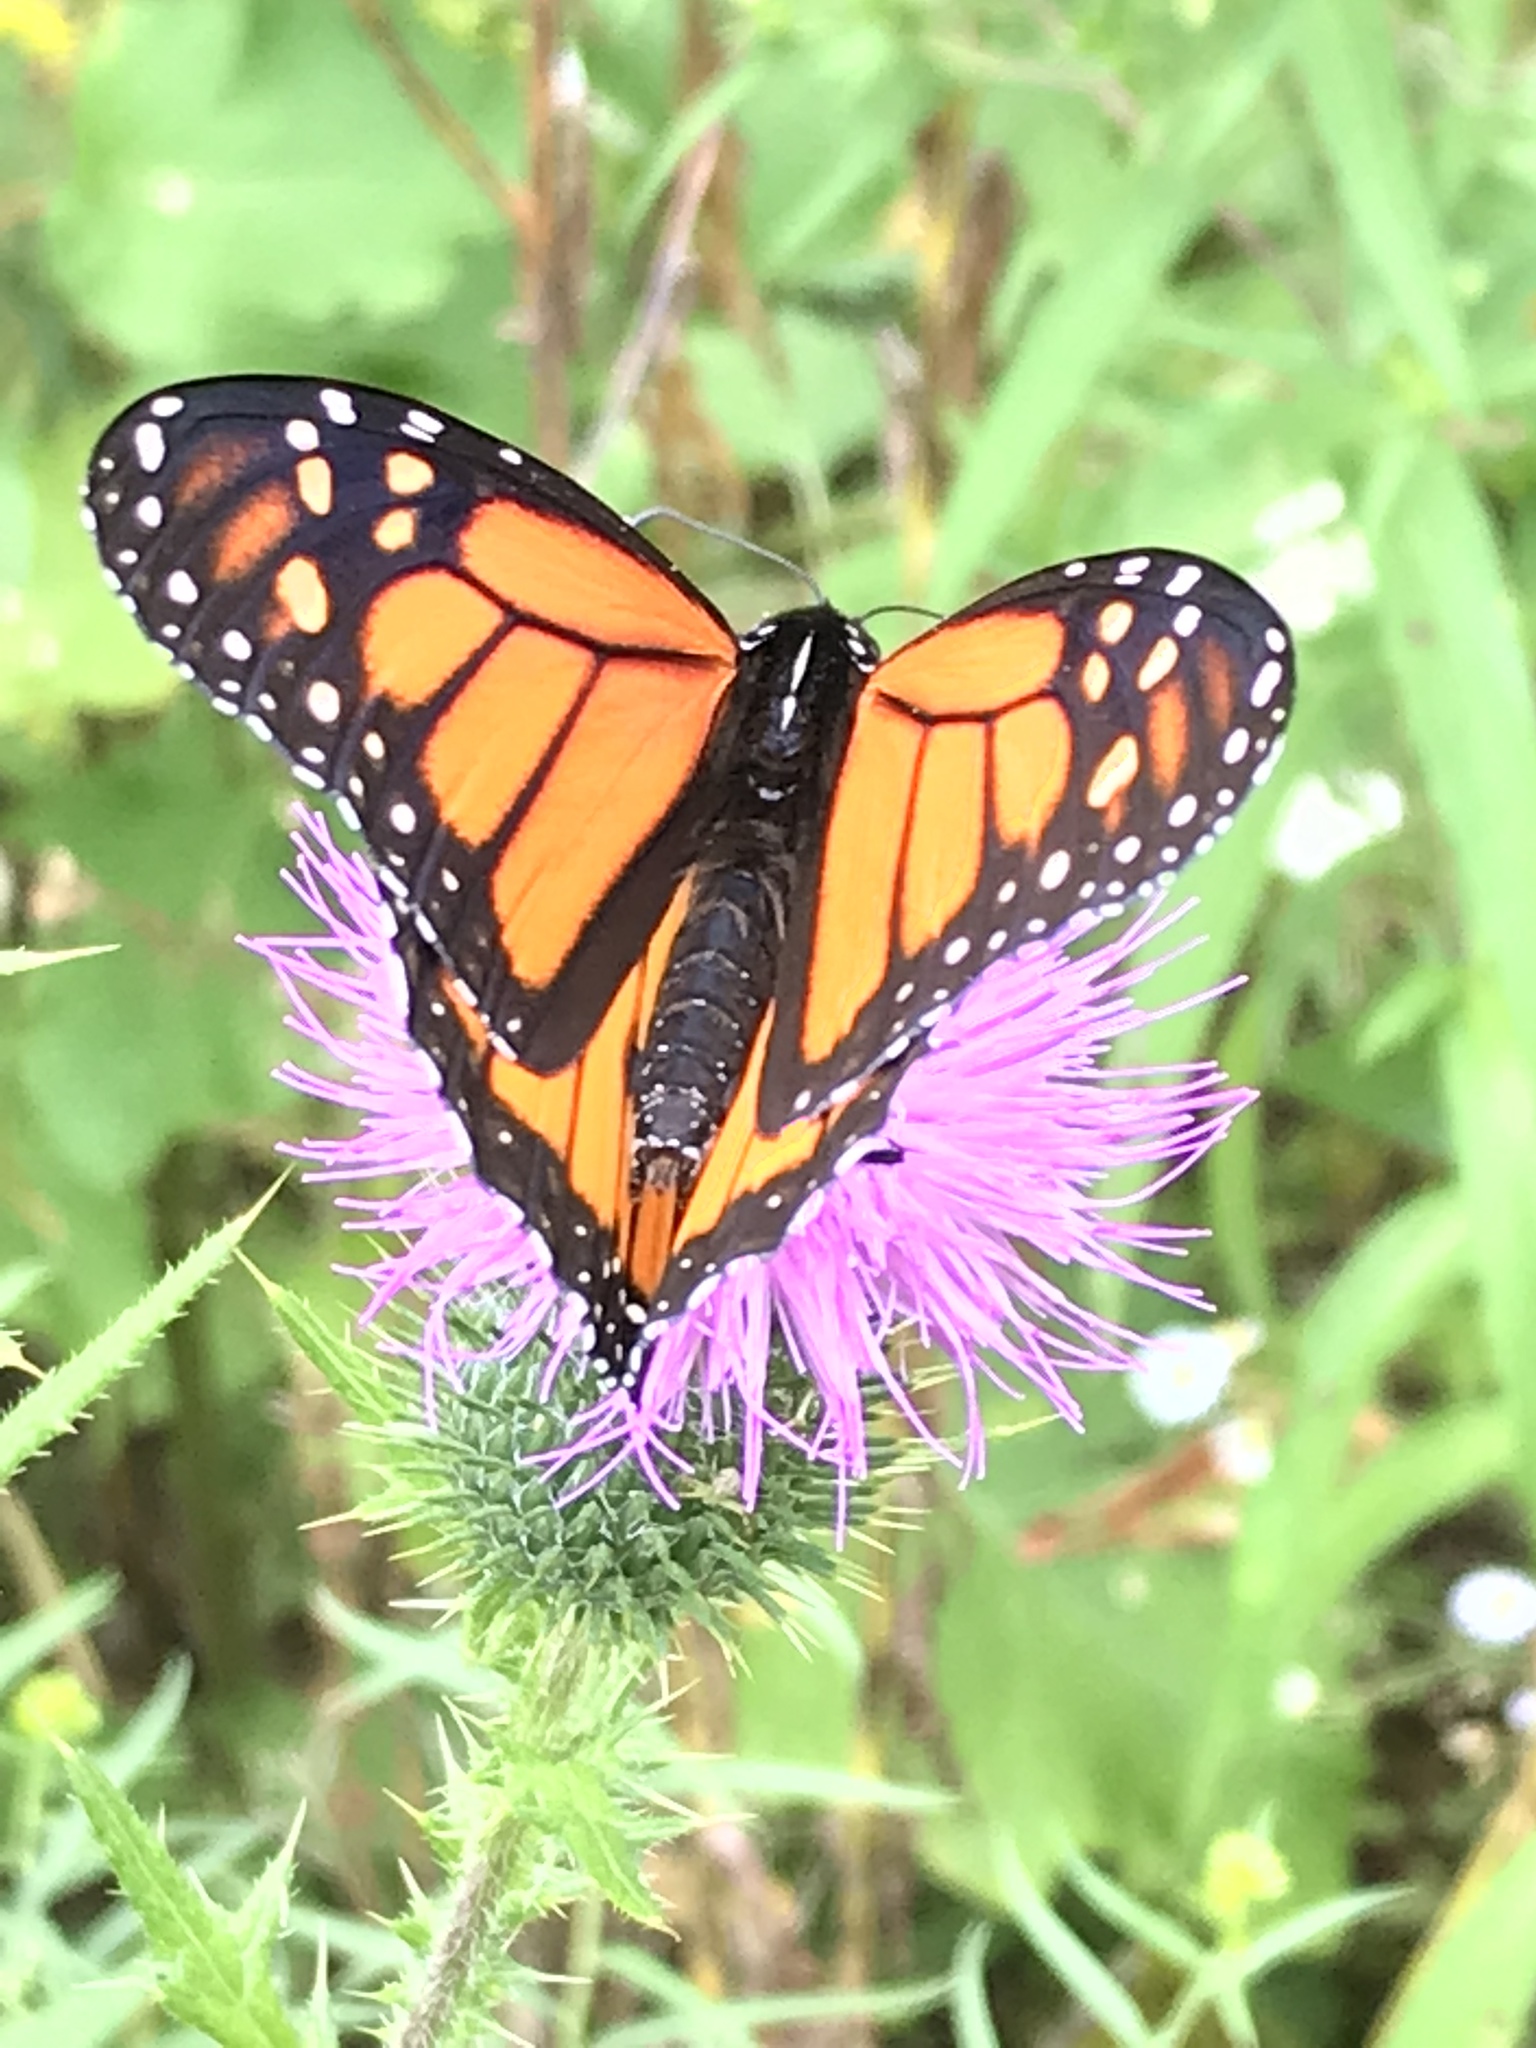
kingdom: Animalia
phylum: Arthropoda
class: Insecta
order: Lepidoptera
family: Nymphalidae
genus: Danaus
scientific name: Danaus plexippus
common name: Monarch
